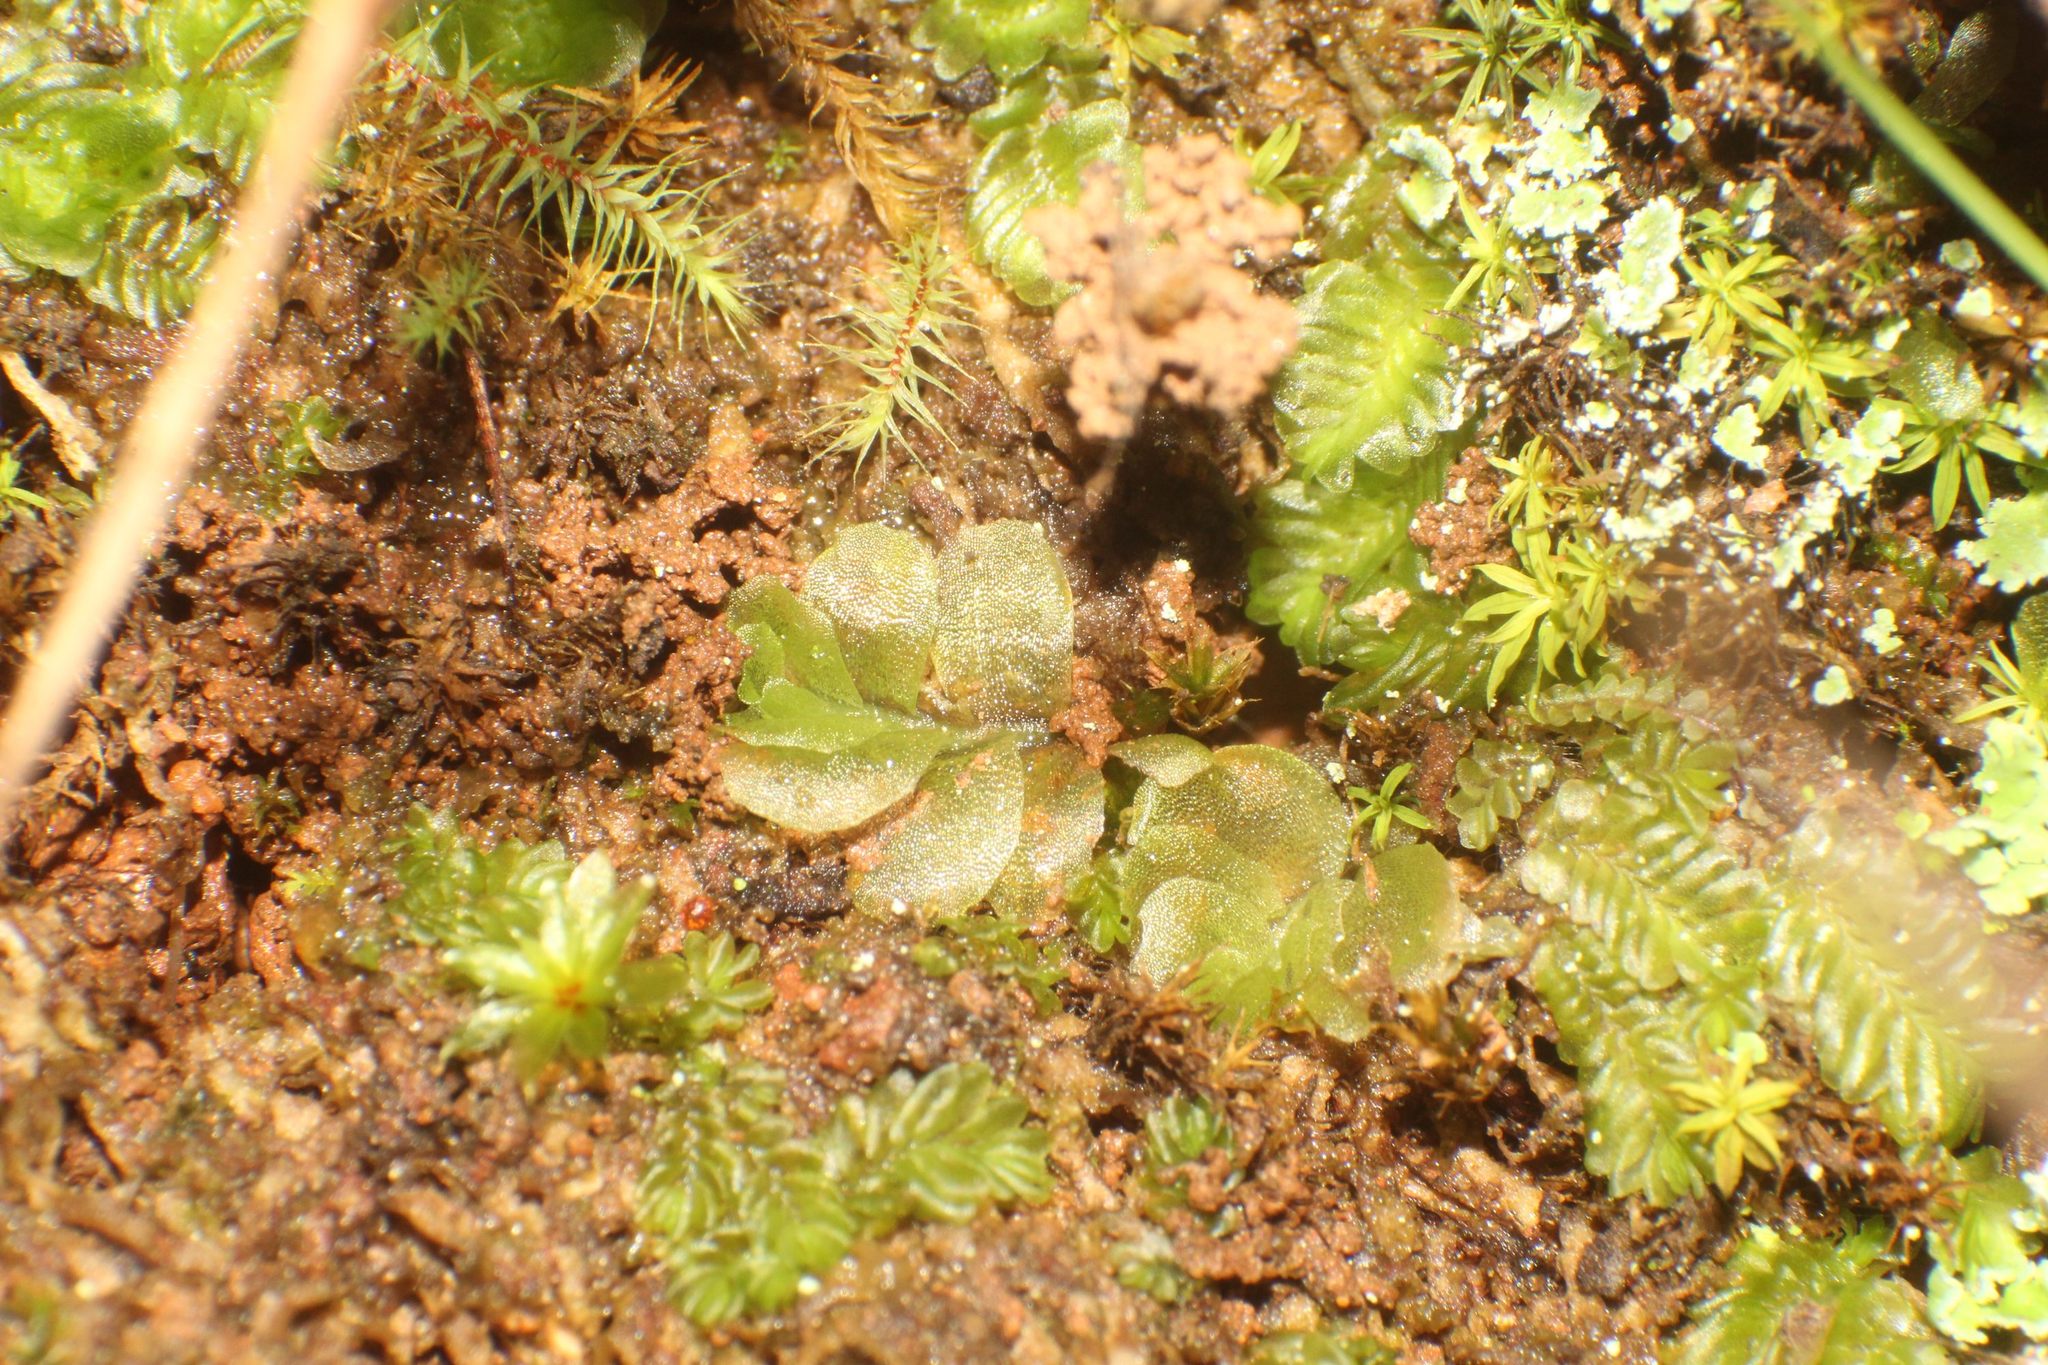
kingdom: Plantae
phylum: Marchantiophyta
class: Jungermanniopsida
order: Jungermanniales
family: Acrobolbaceae
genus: Lethocolea
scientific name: Lethocolea pansa
